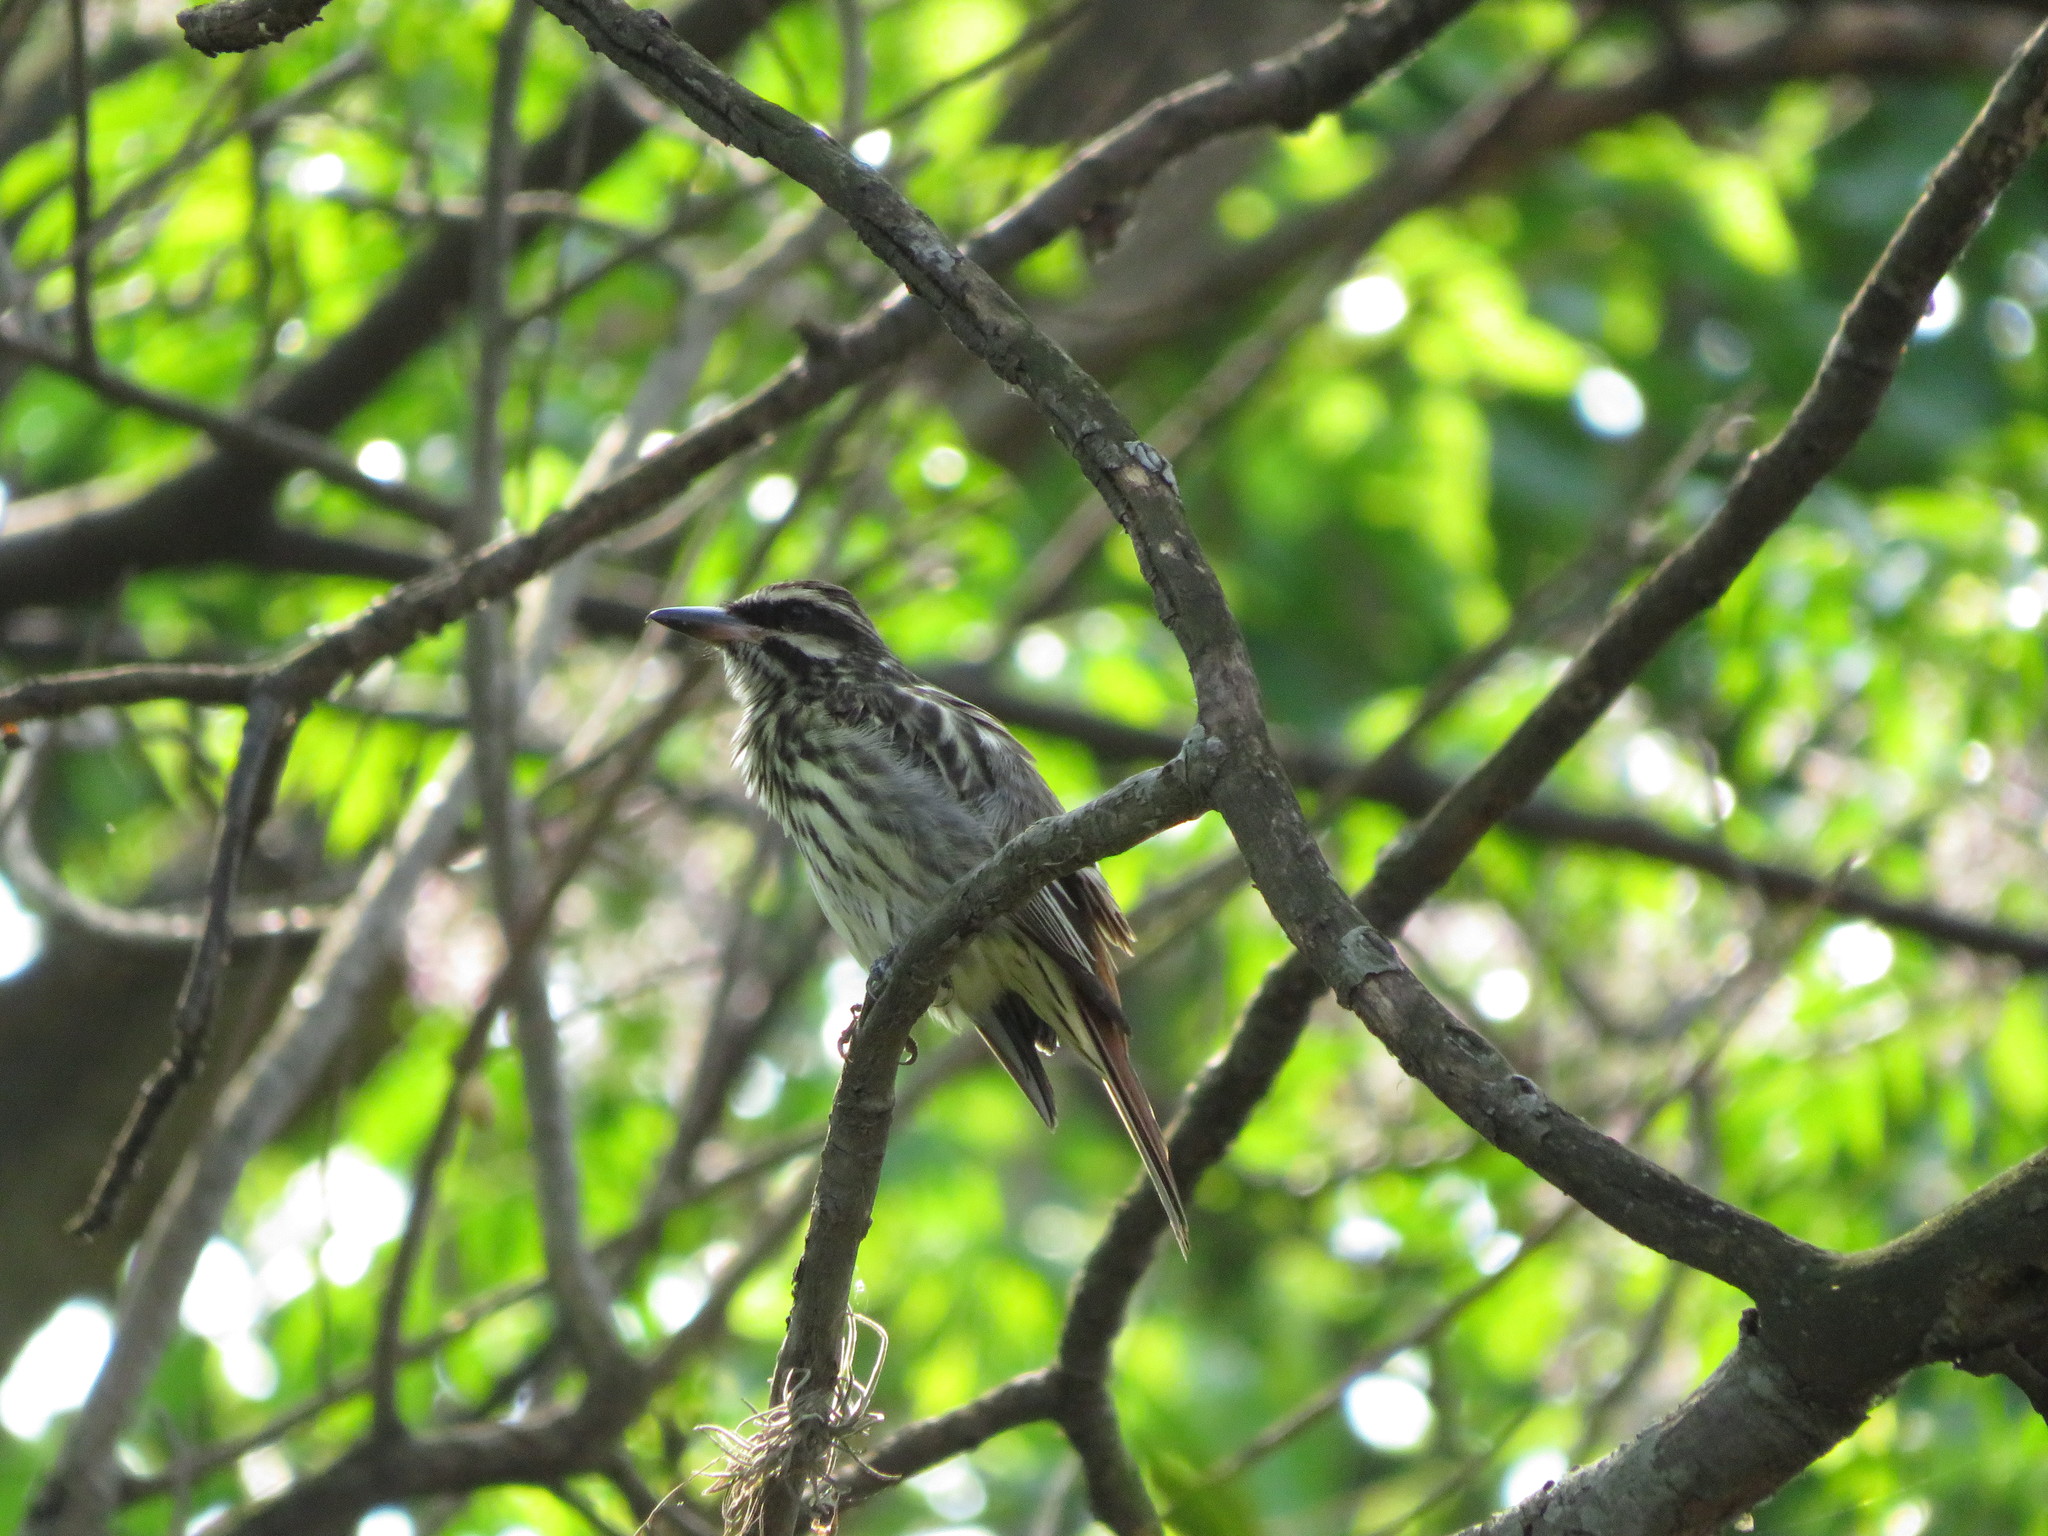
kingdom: Animalia
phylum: Chordata
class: Aves
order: Passeriformes
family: Tyrannidae
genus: Myiodynastes
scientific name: Myiodynastes maculatus
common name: Streaked flycatcher
